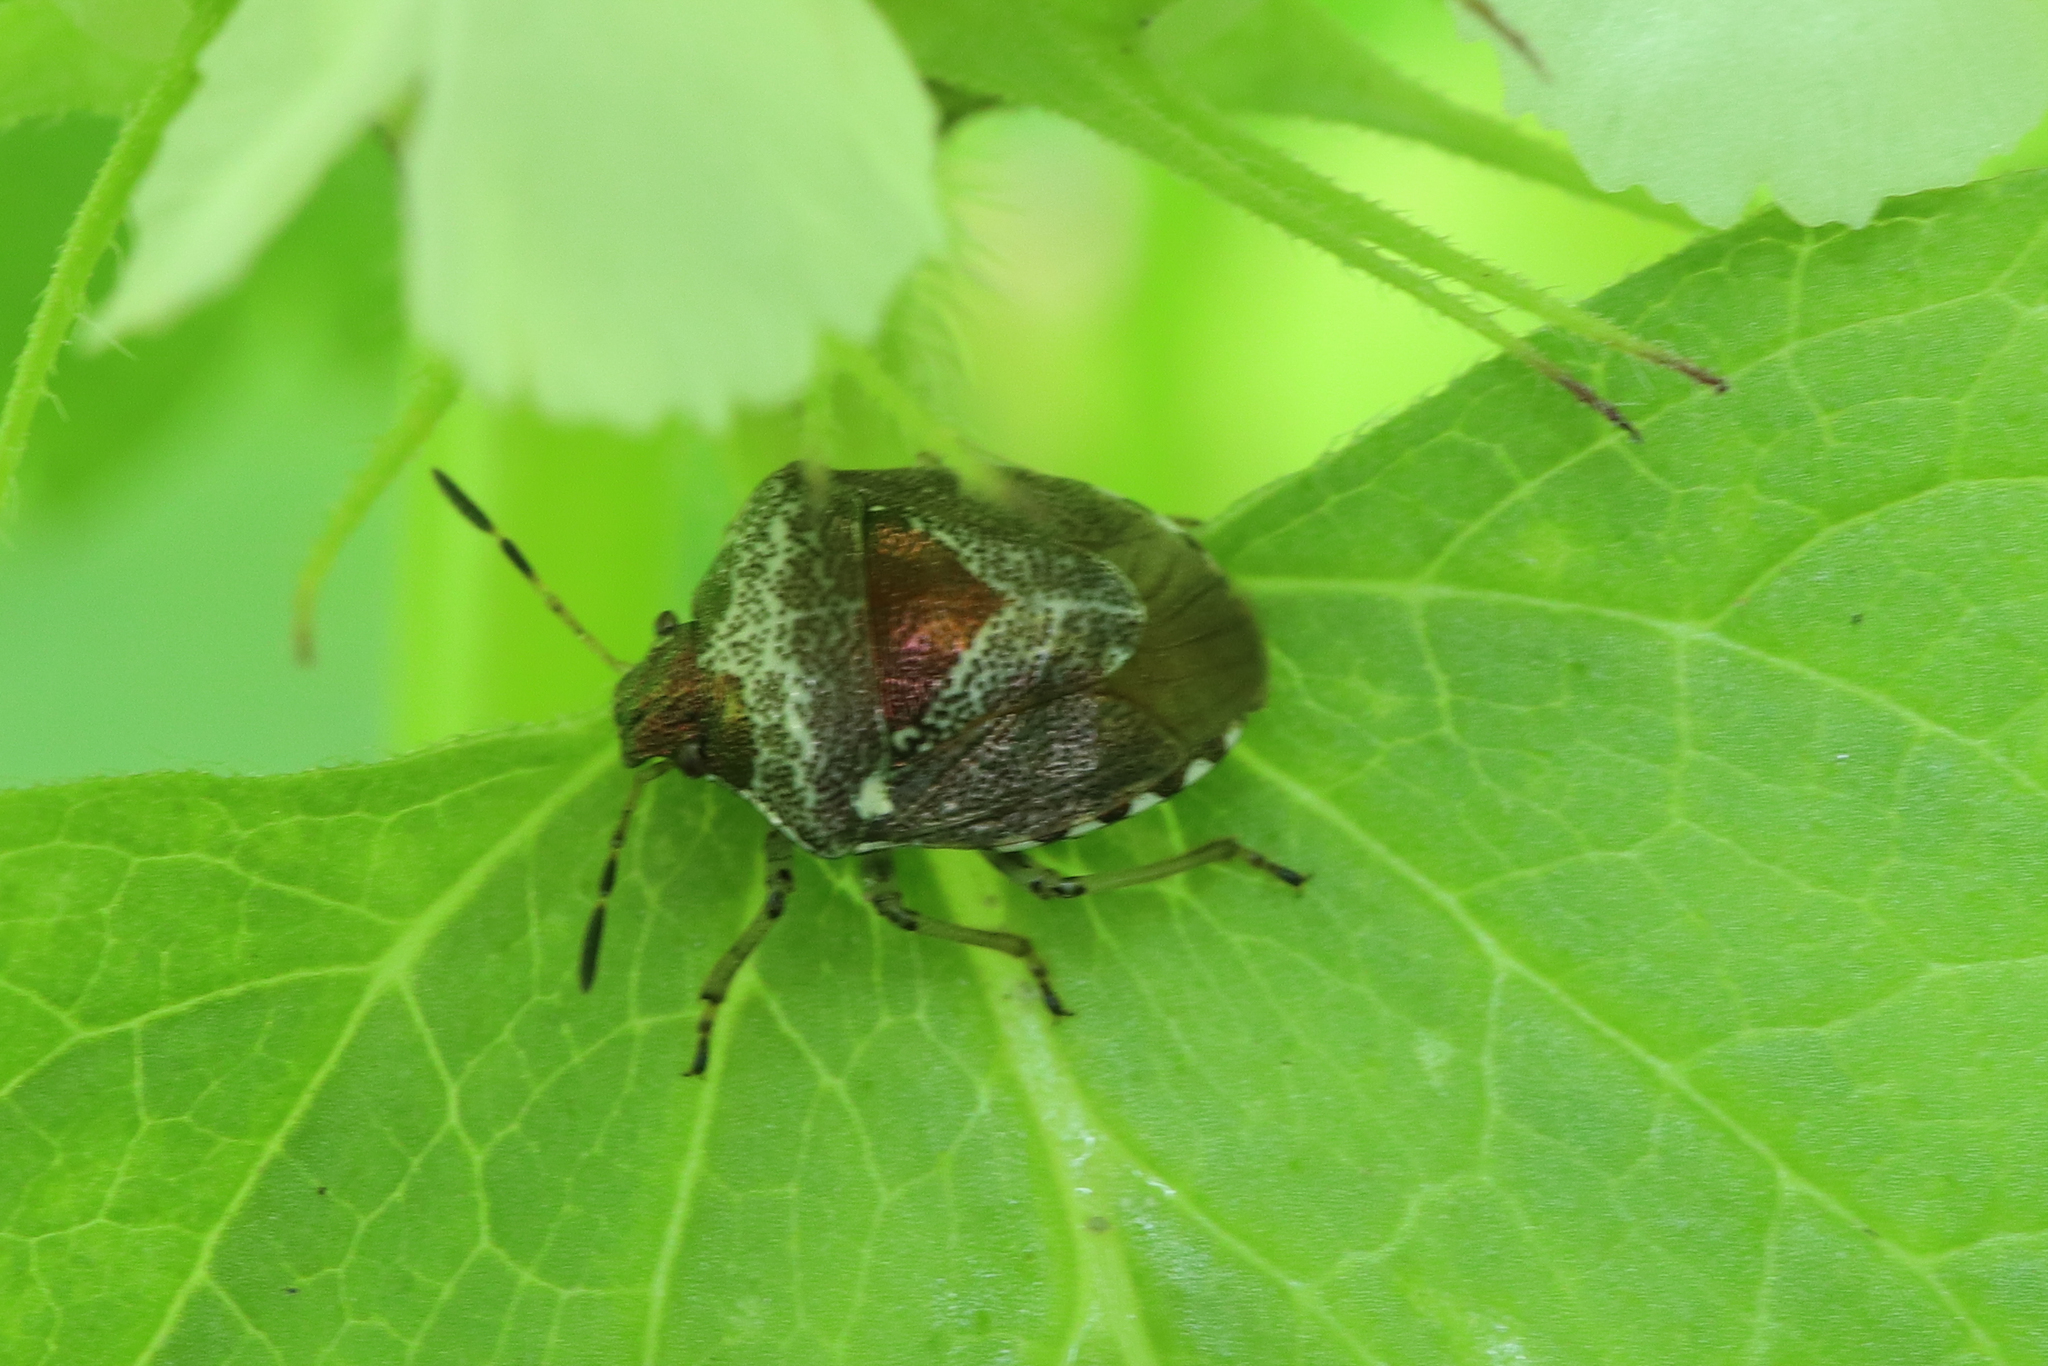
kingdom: Animalia
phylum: Arthropoda
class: Insecta
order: Hemiptera
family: Pentatomidae
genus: Eysarcoris
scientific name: Eysarcoris venustissimus
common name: Woundwort shieldbug
